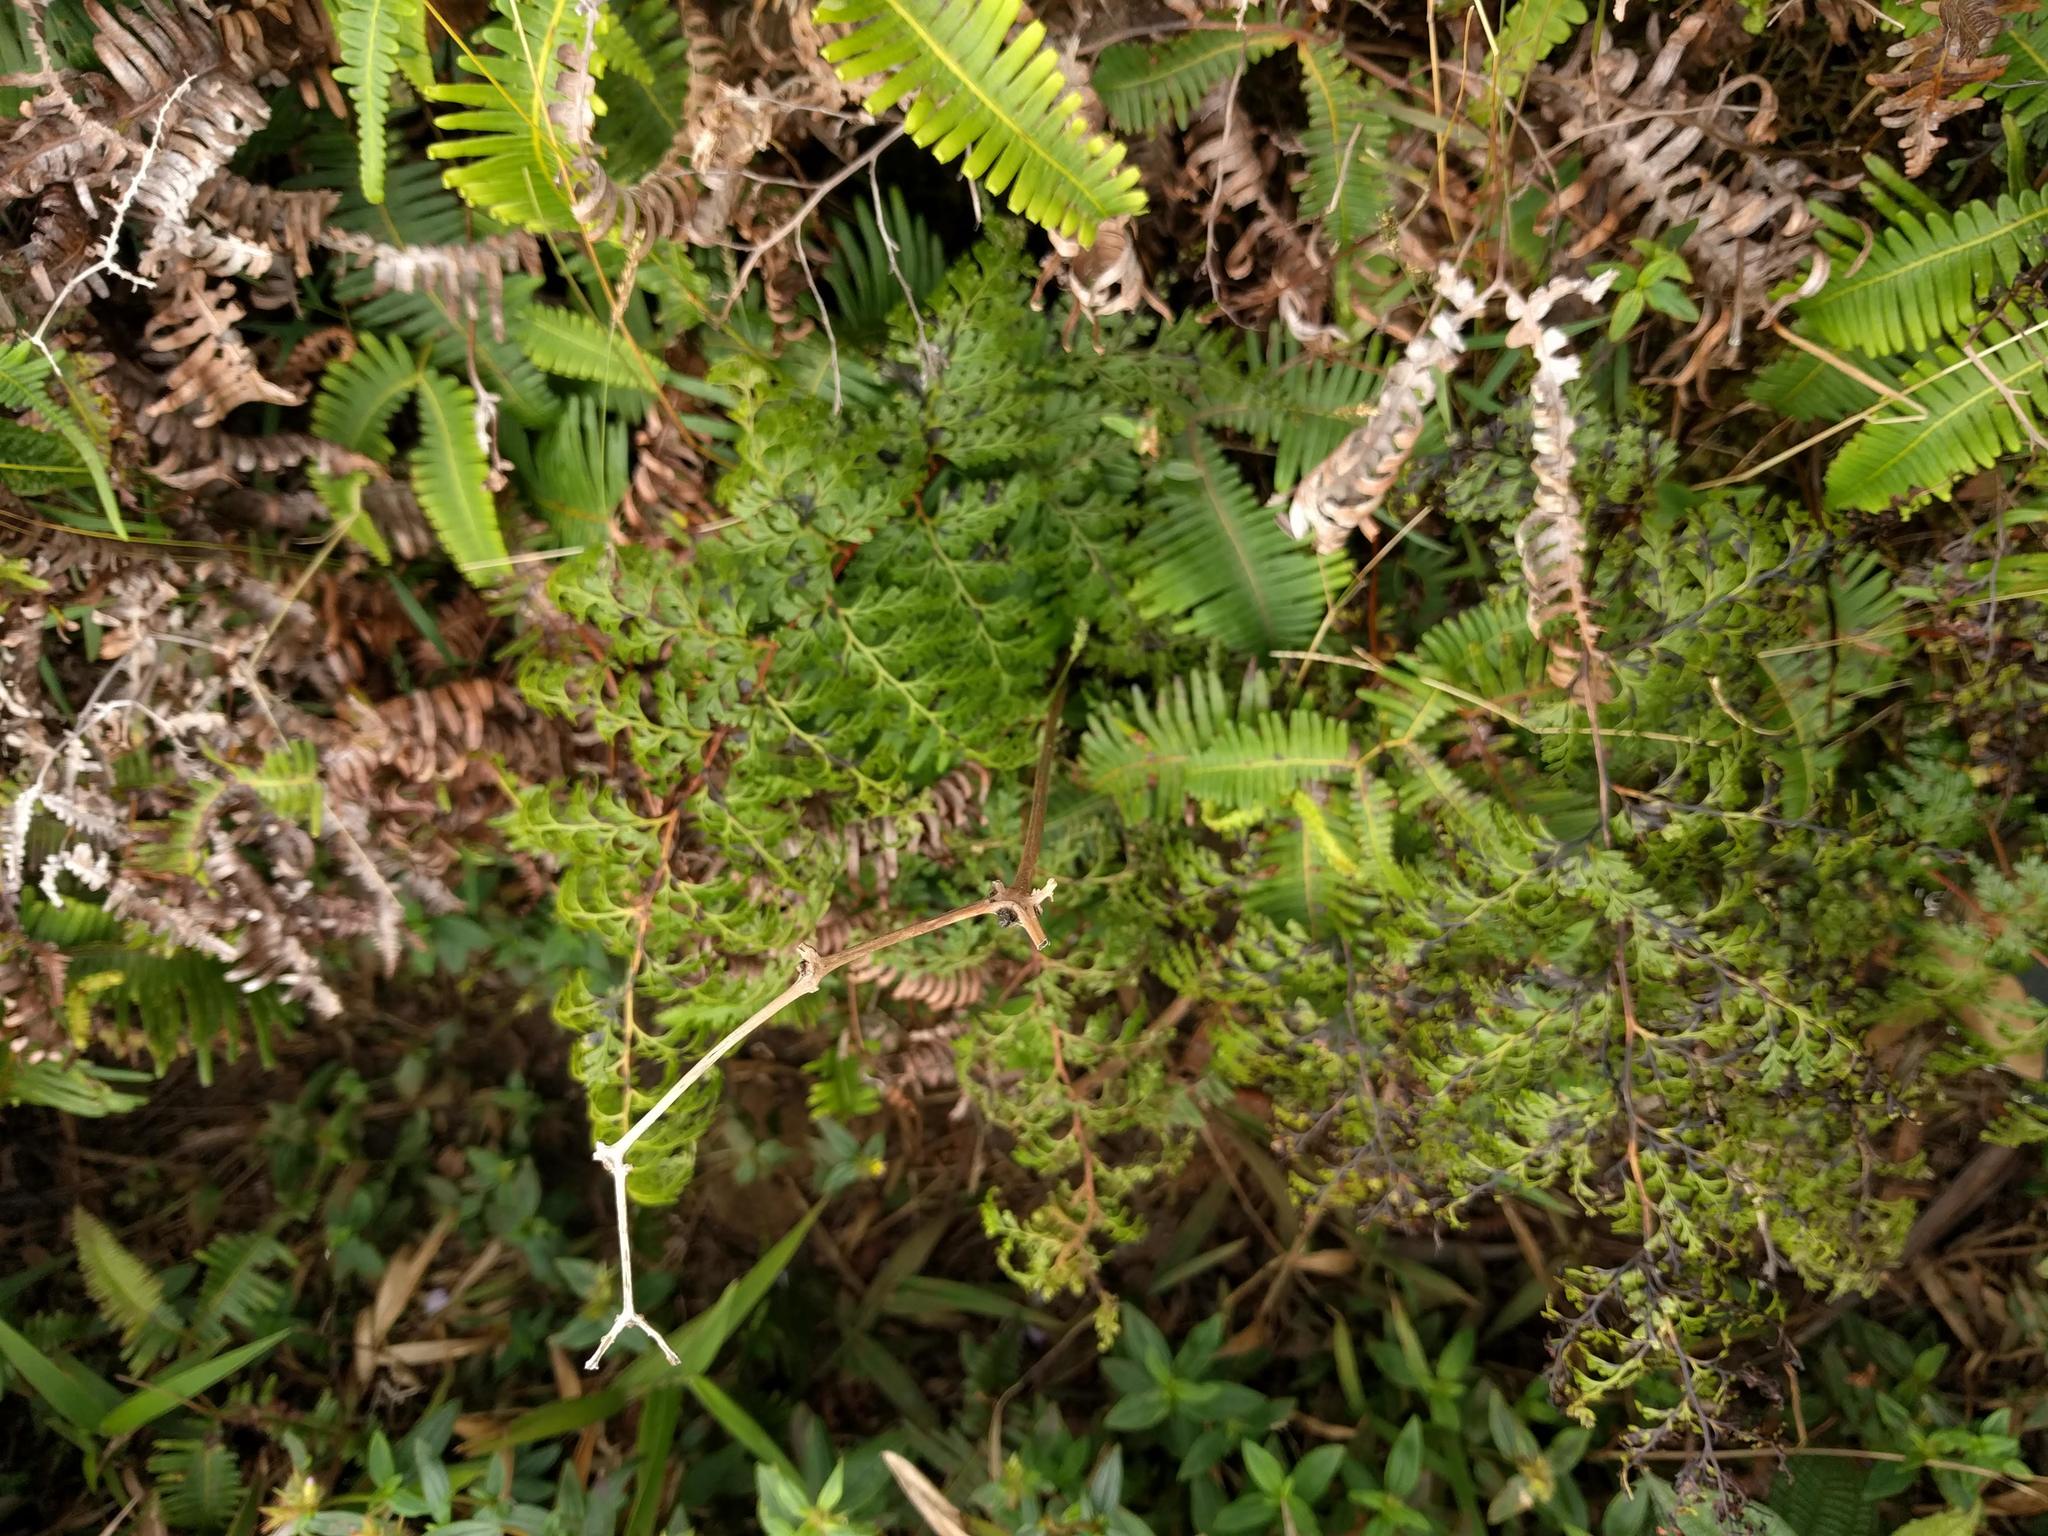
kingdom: Plantae
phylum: Tracheophyta
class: Polypodiopsida
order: Polypodiales
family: Lindsaeaceae
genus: Odontosoria
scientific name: Odontosoria chinensis
